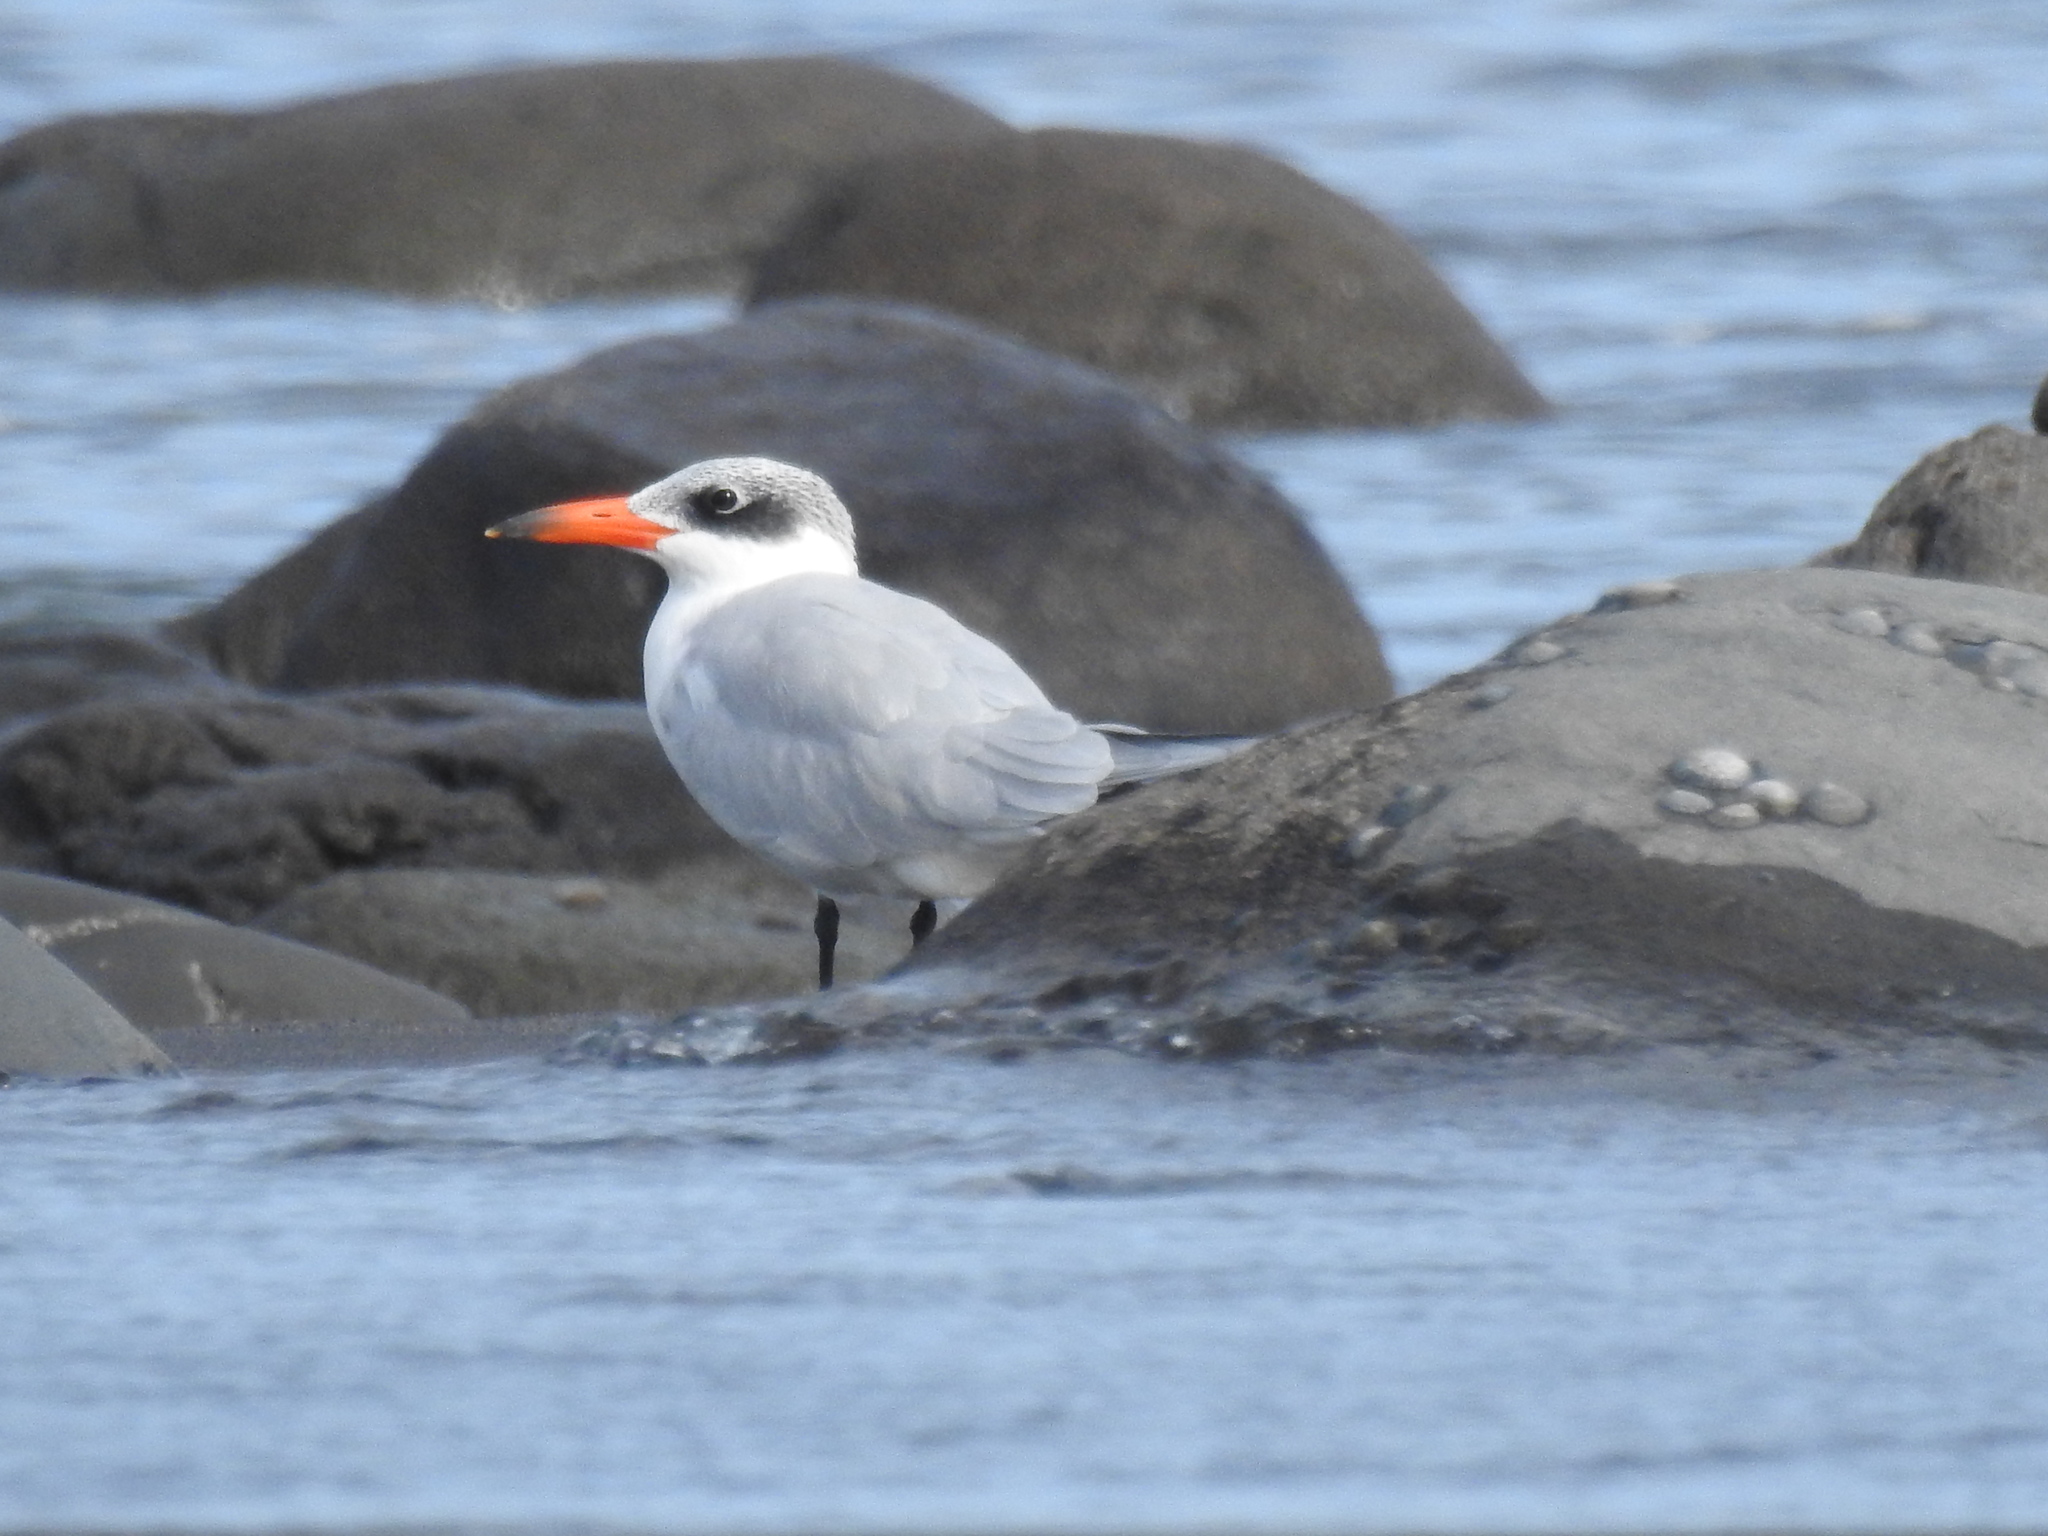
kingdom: Animalia
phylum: Chordata
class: Aves
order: Charadriiformes
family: Laridae
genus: Hydroprogne
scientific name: Hydroprogne caspia
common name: Caspian tern
